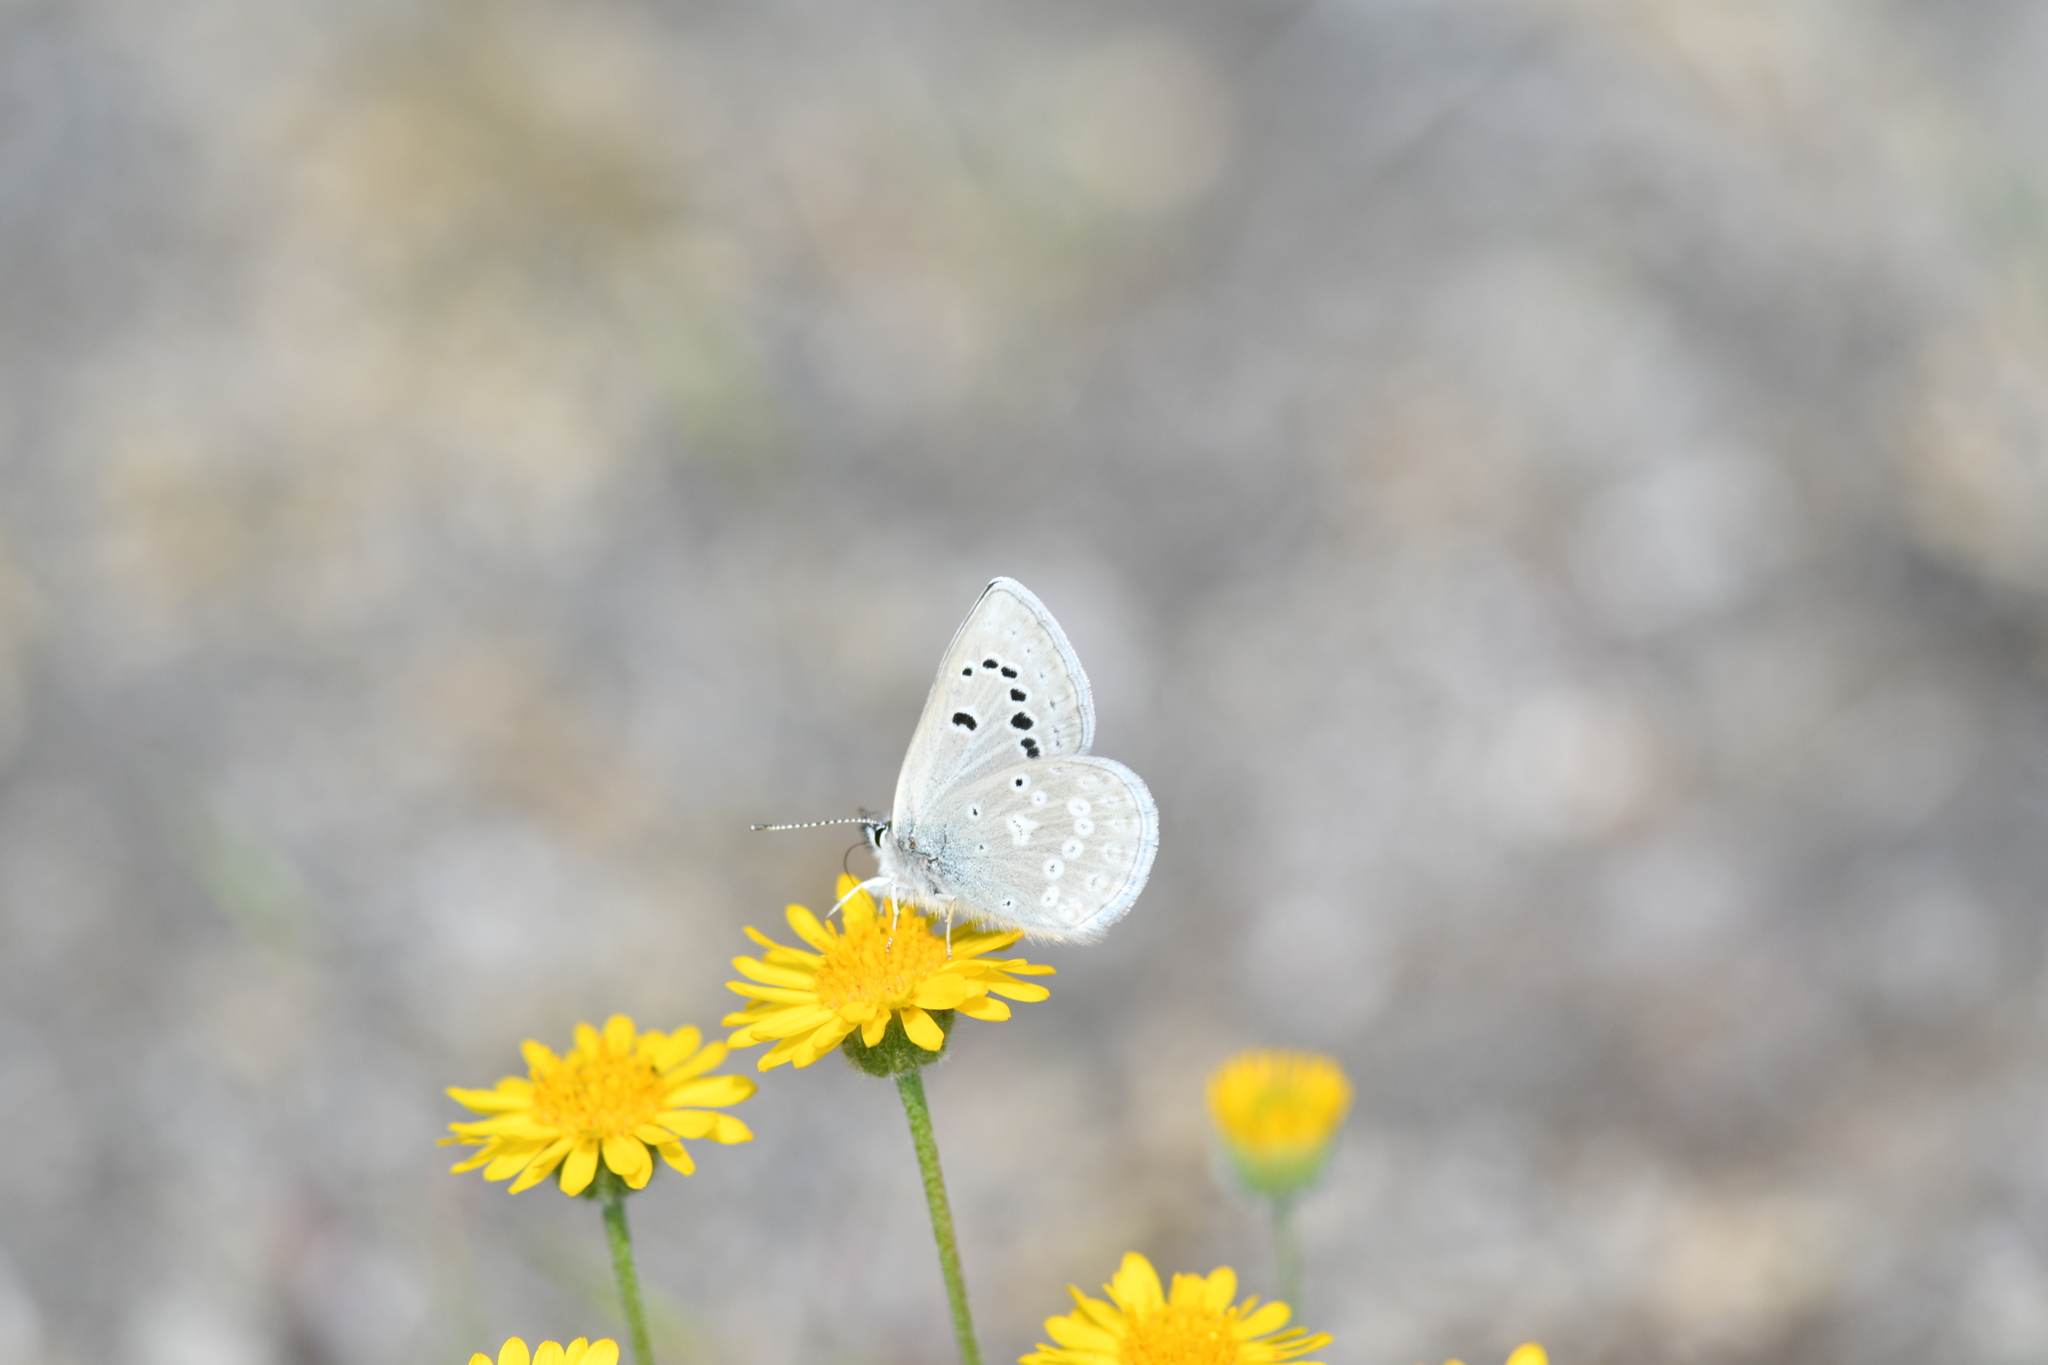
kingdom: Animalia
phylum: Arthropoda
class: Insecta
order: Lepidoptera
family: Lycaenidae
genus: Icaricia
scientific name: Icaricia icarioides
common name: Boisduval's blue
